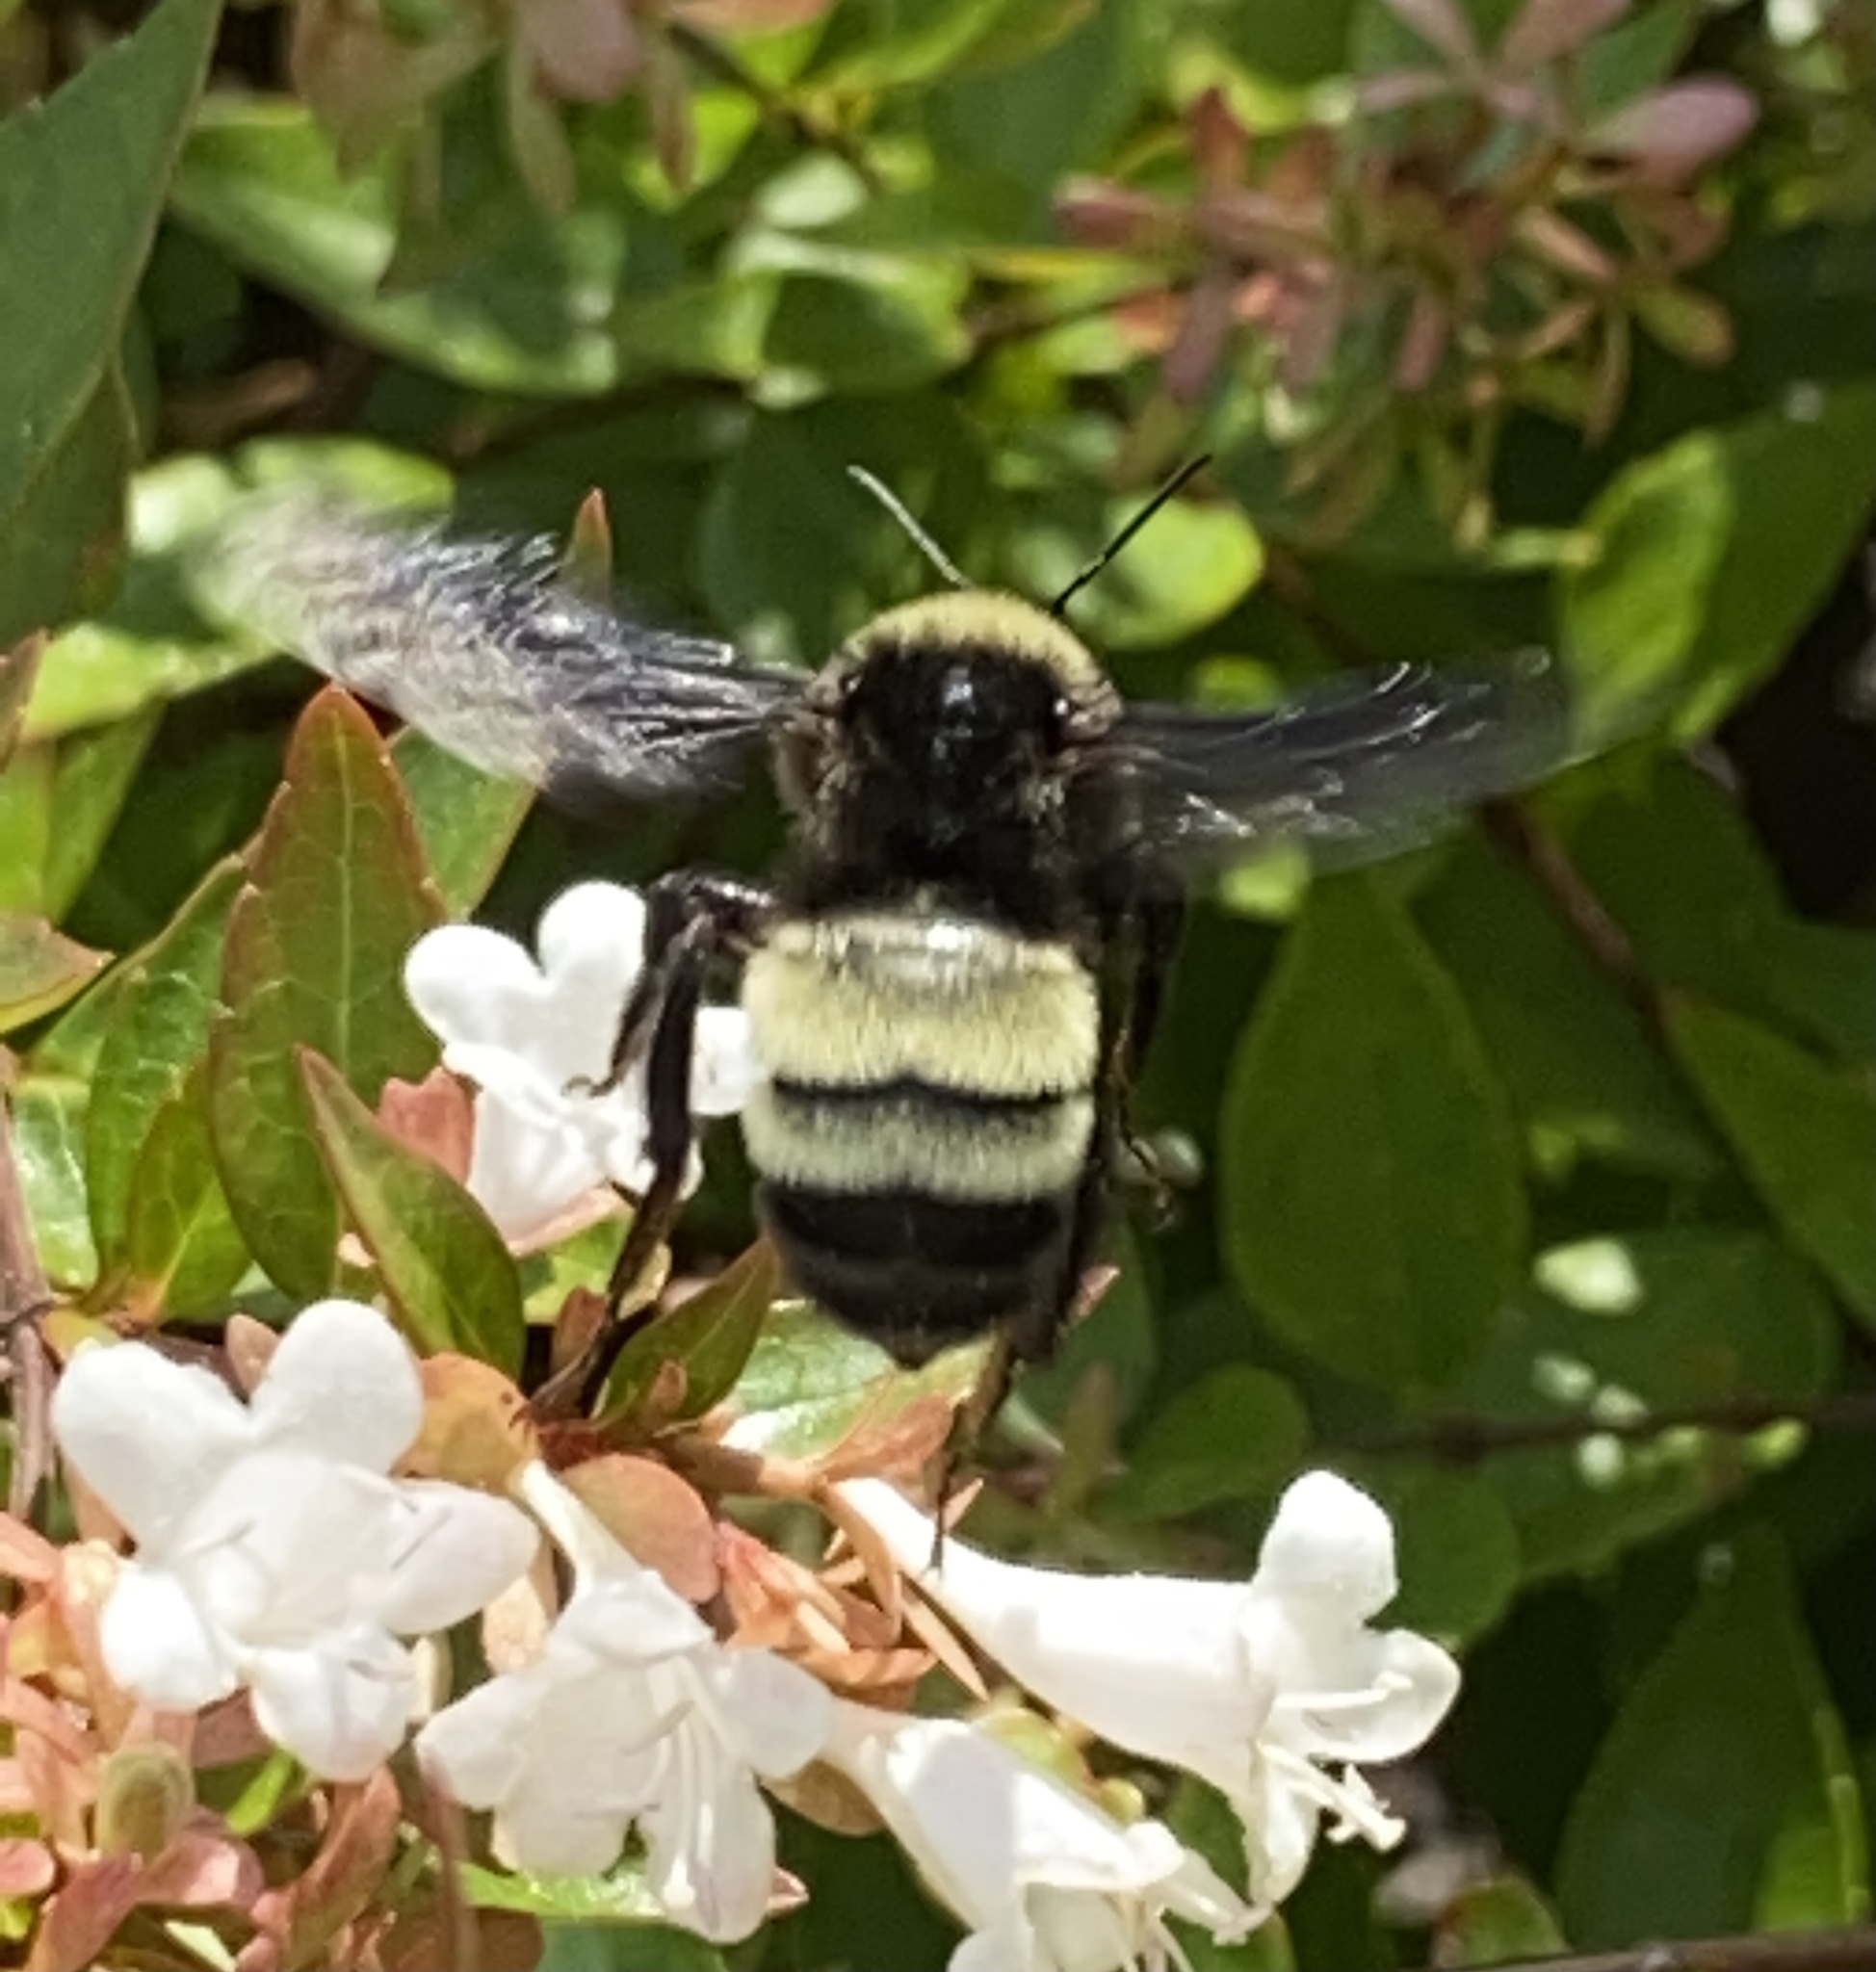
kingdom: Animalia
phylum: Arthropoda
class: Insecta
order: Hymenoptera
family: Apidae
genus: Bombus
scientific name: Bombus pensylvanicus
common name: Bumble bee
